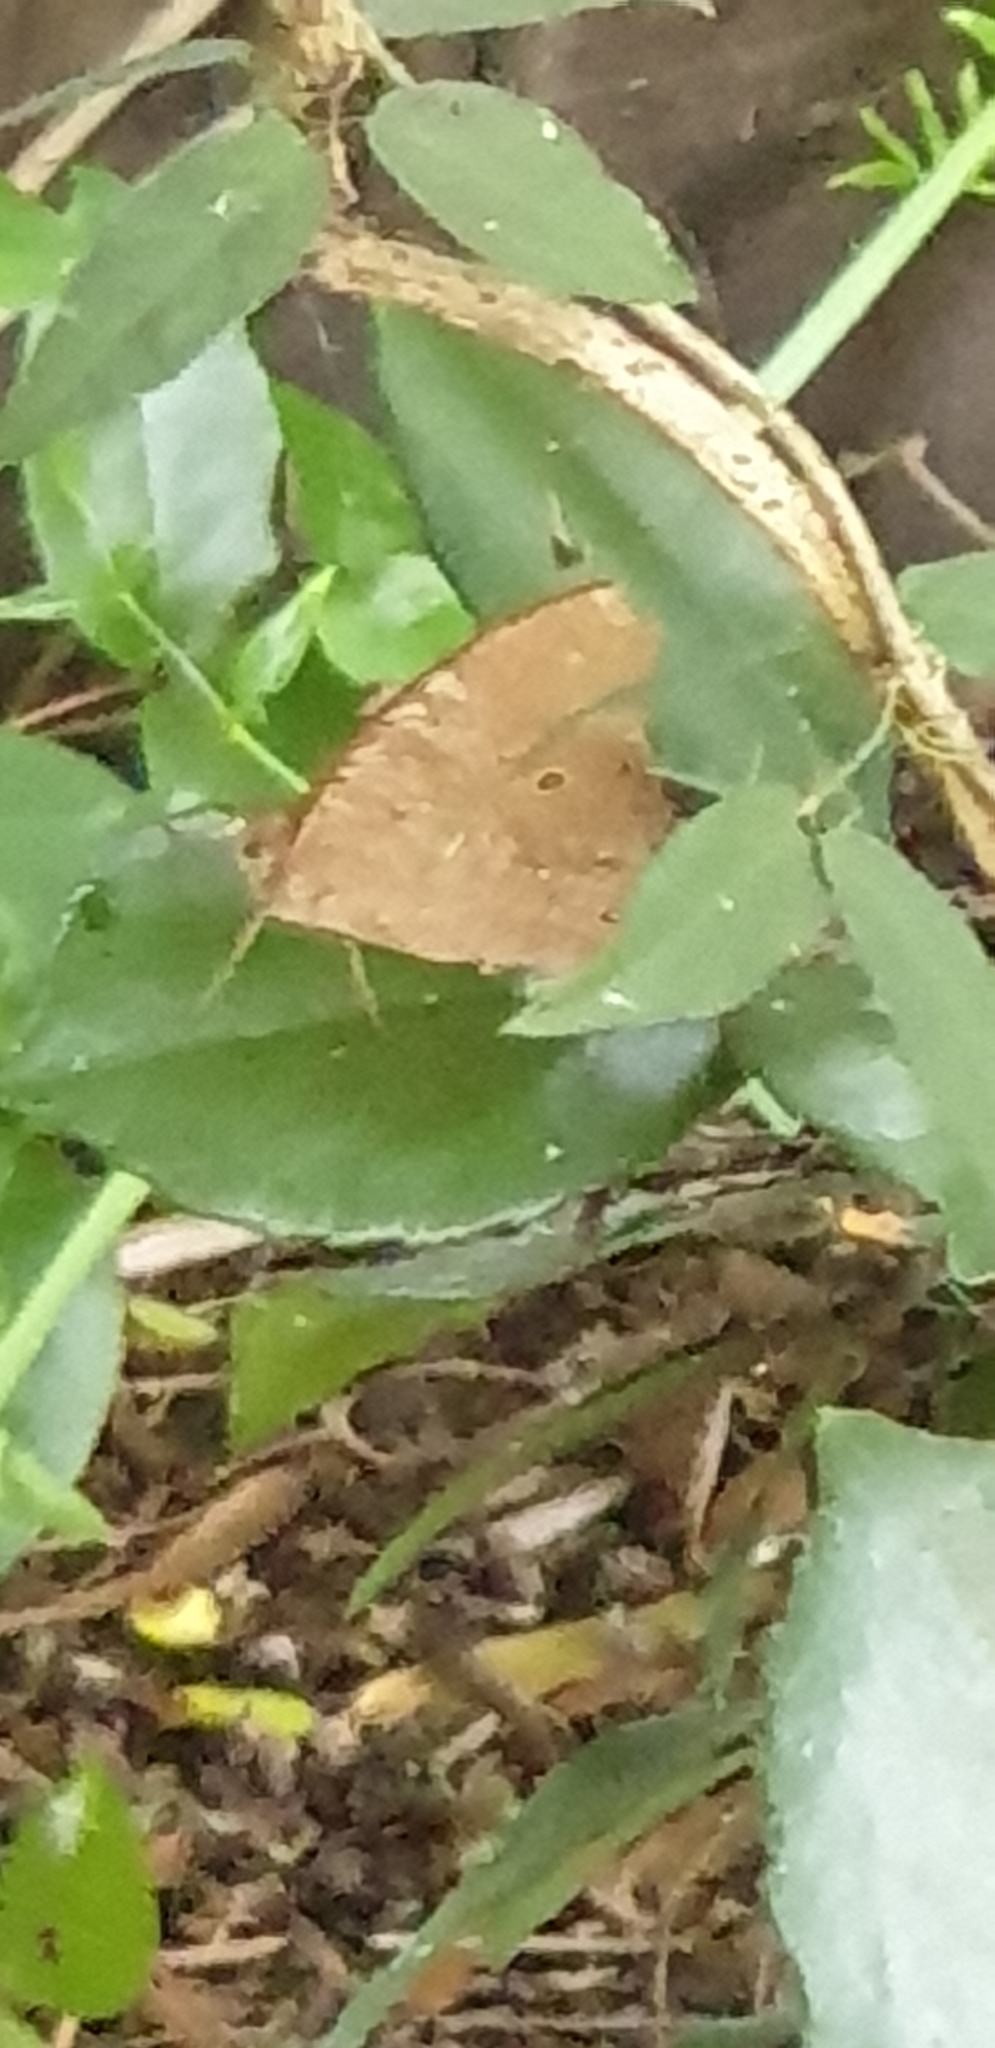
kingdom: Animalia
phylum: Arthropoda
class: Insecta
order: Lepidoptera
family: Nymphalidae
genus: Melanitis
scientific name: Melanitis leda
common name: Twilight brown
